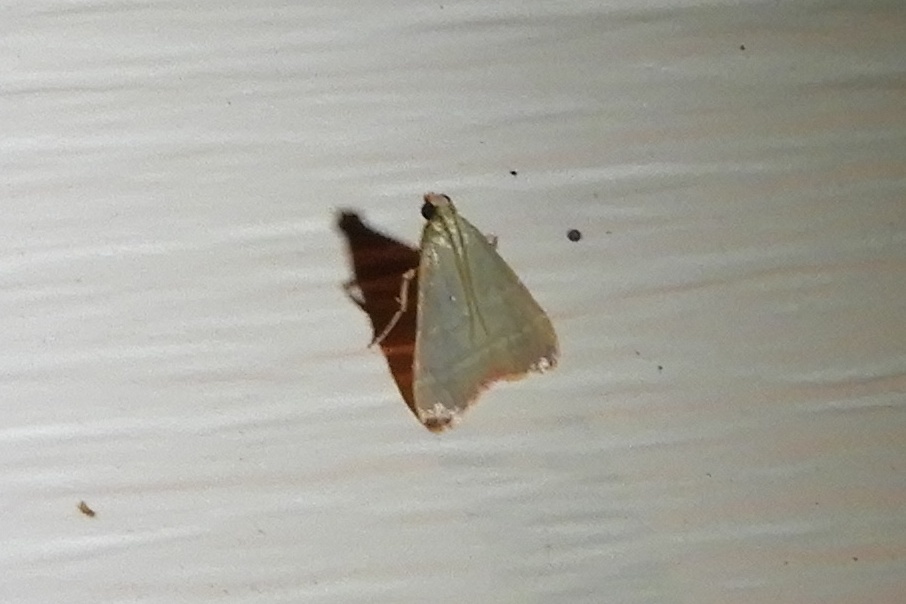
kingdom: Animalia
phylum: Arthropoda
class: Insecta
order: Lepidoptera
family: Pyralidae
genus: Arta
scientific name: Arta olivalis
